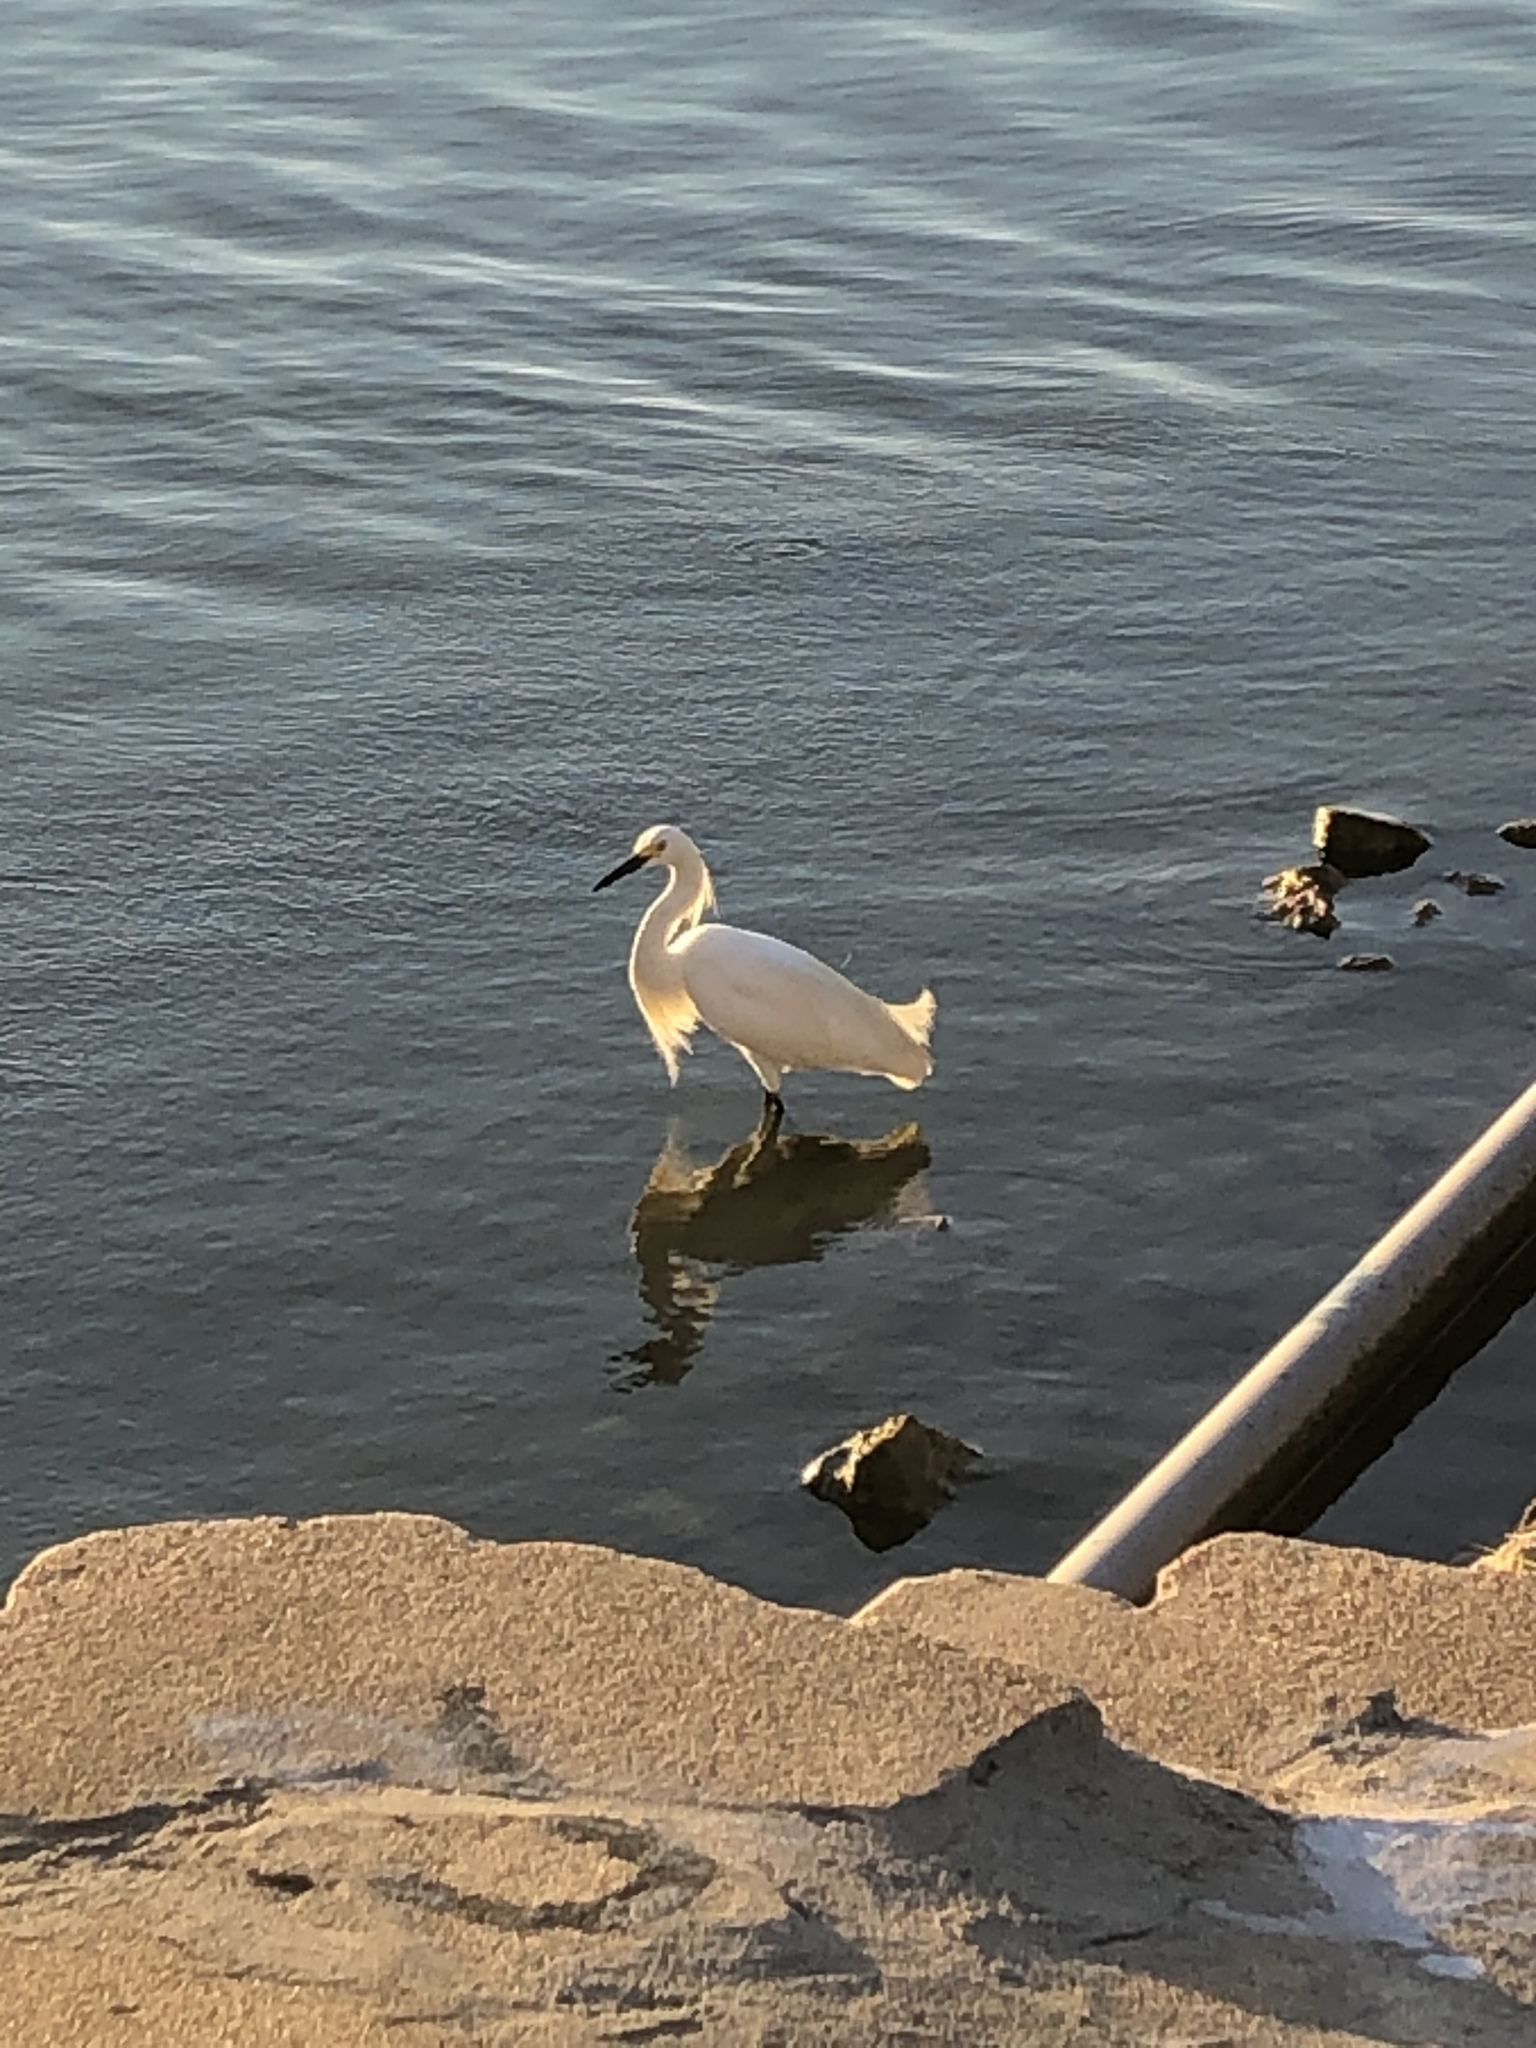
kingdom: Animalia
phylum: Chordata
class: Aves
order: Pelecaniformes
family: Ardeidae
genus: Egretta
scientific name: Egretta thula
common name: Snowy egret
